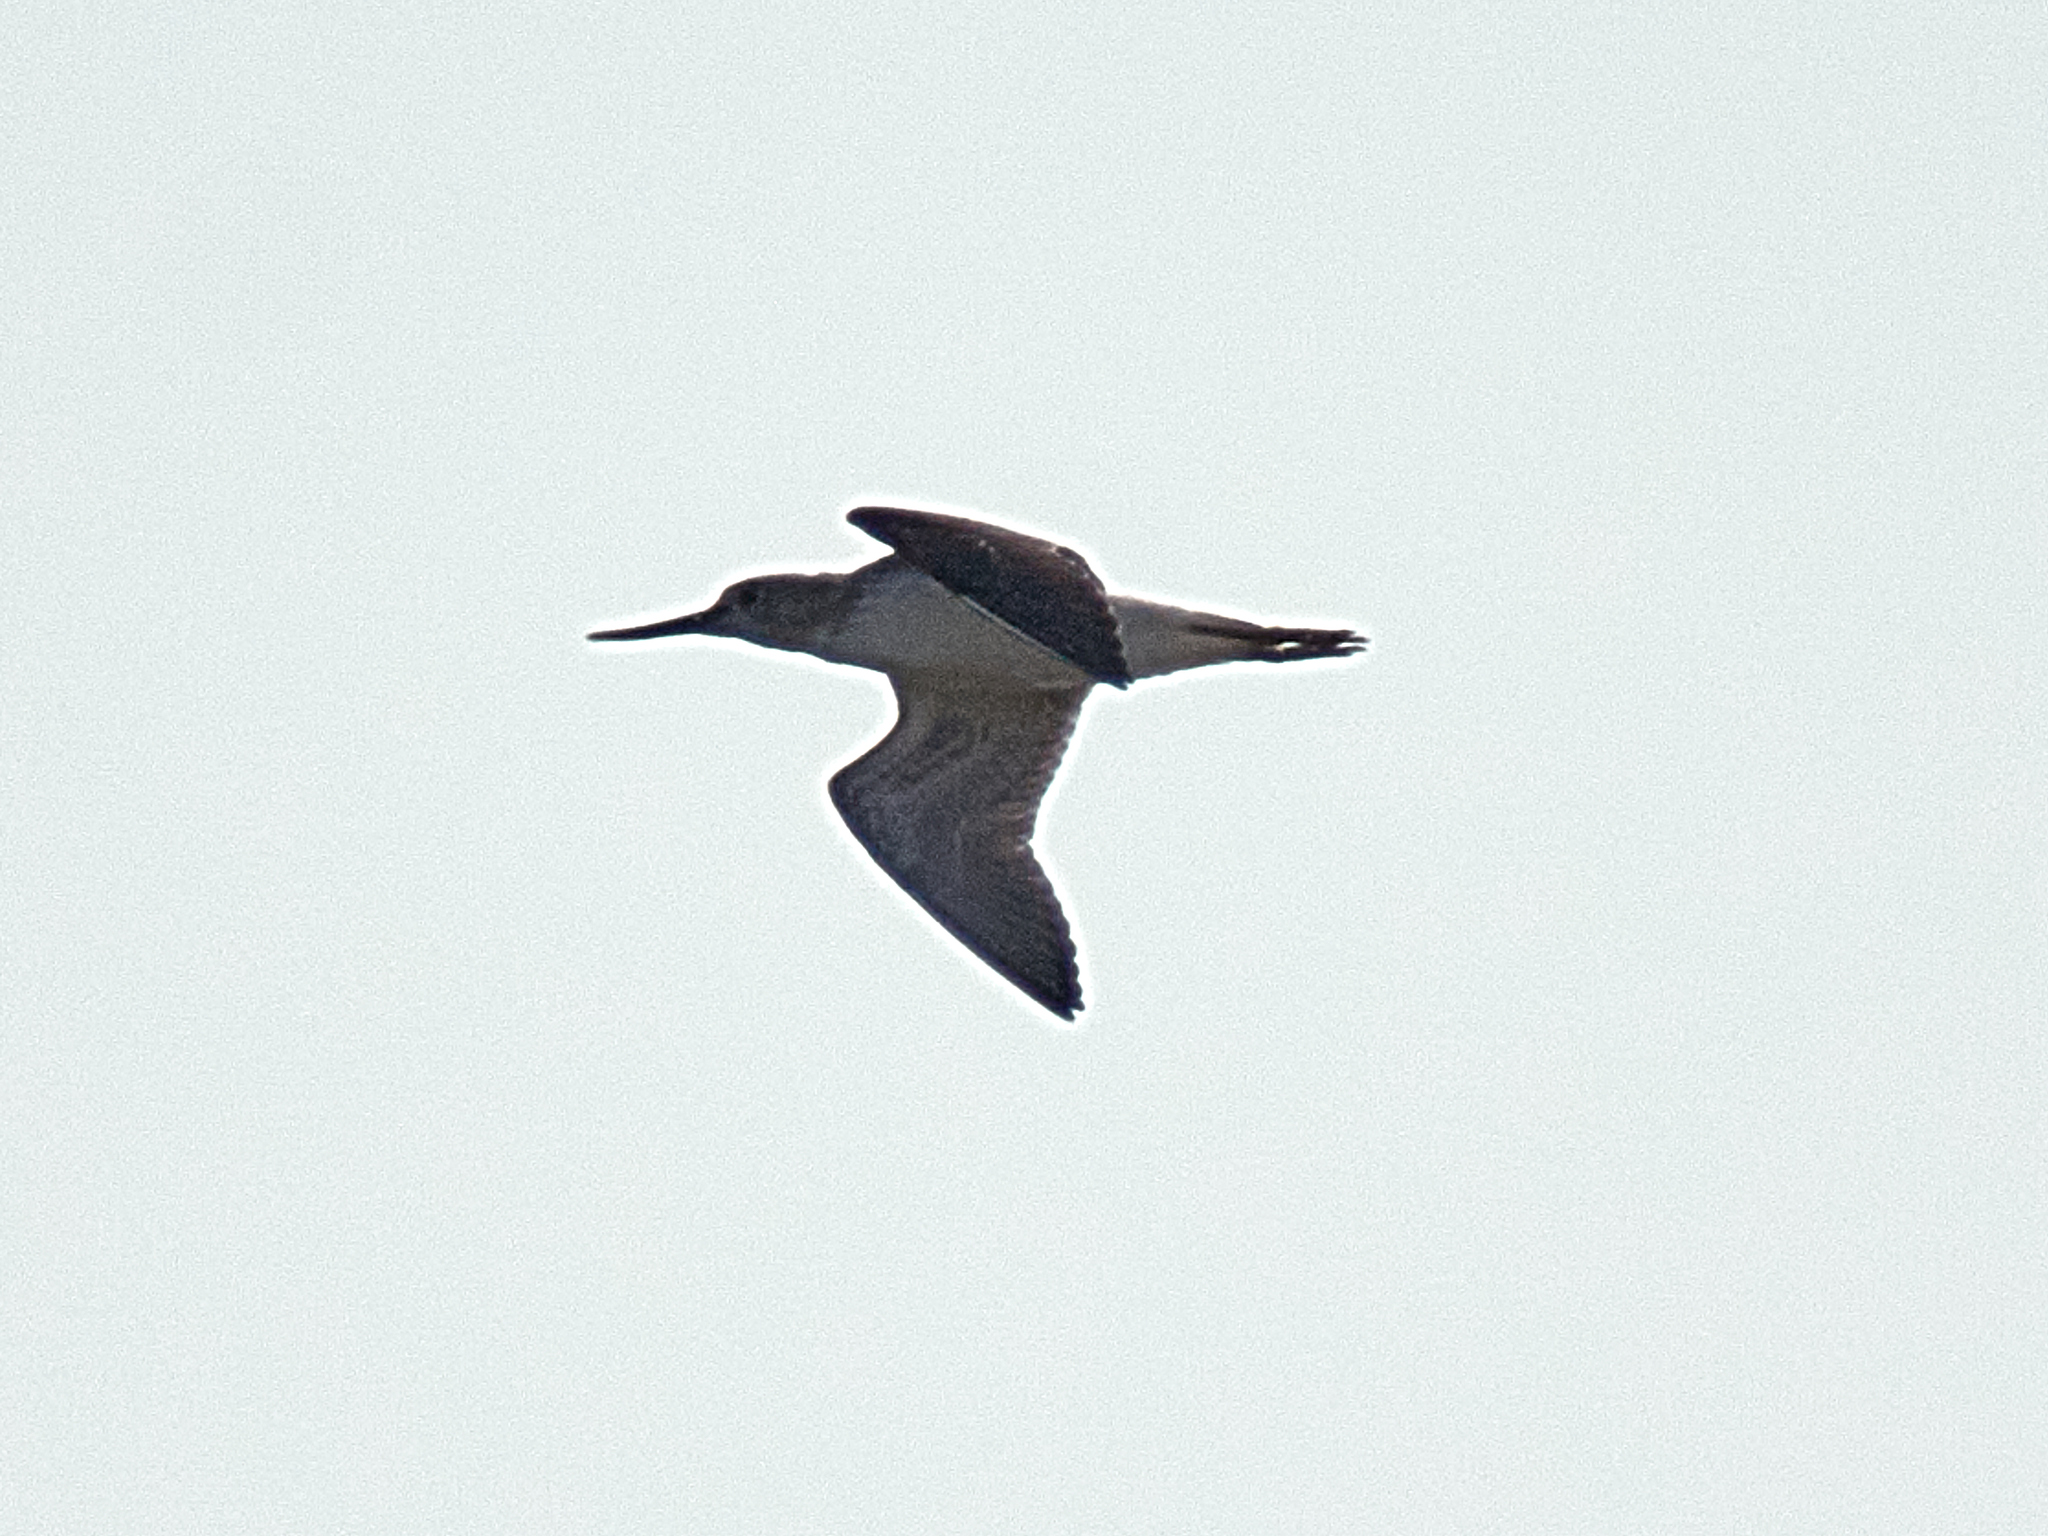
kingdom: Animalia
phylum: Chordata
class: Aves
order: Charadriiformes
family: Scolopacidae
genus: Tringa
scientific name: Tringa nebularia
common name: Common greenshank
